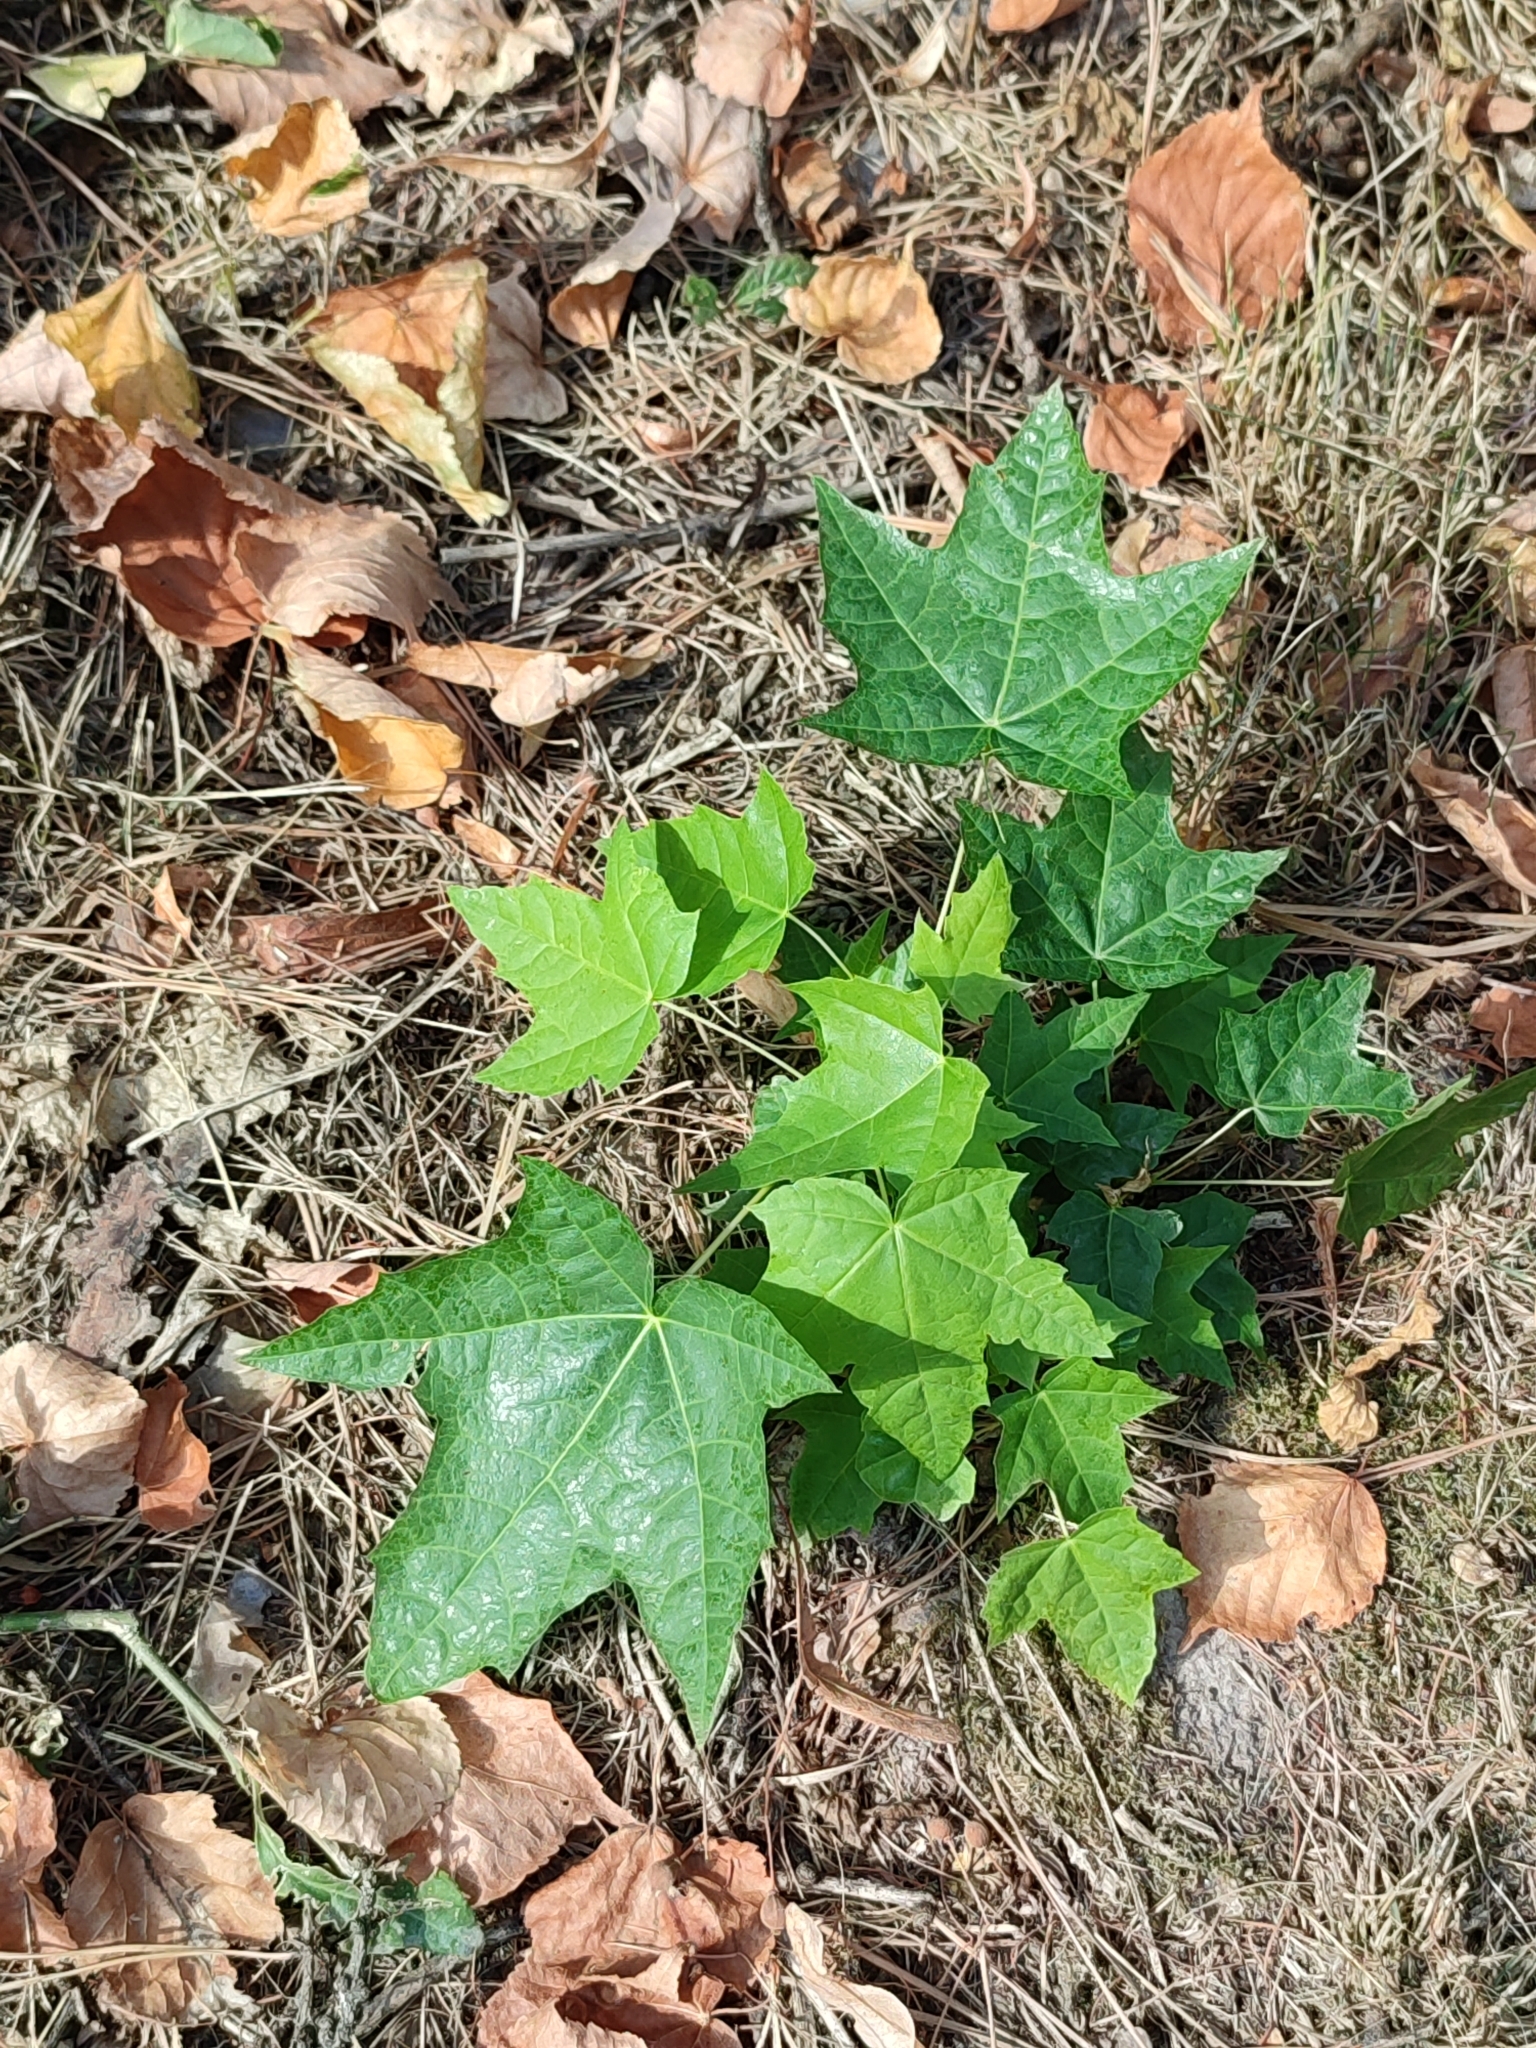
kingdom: Plantae
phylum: Tracheophyta
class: Magnoliopsida
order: Sapindales
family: Sapindaceae
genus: Acer
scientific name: Acer platanoides
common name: Norway maple
